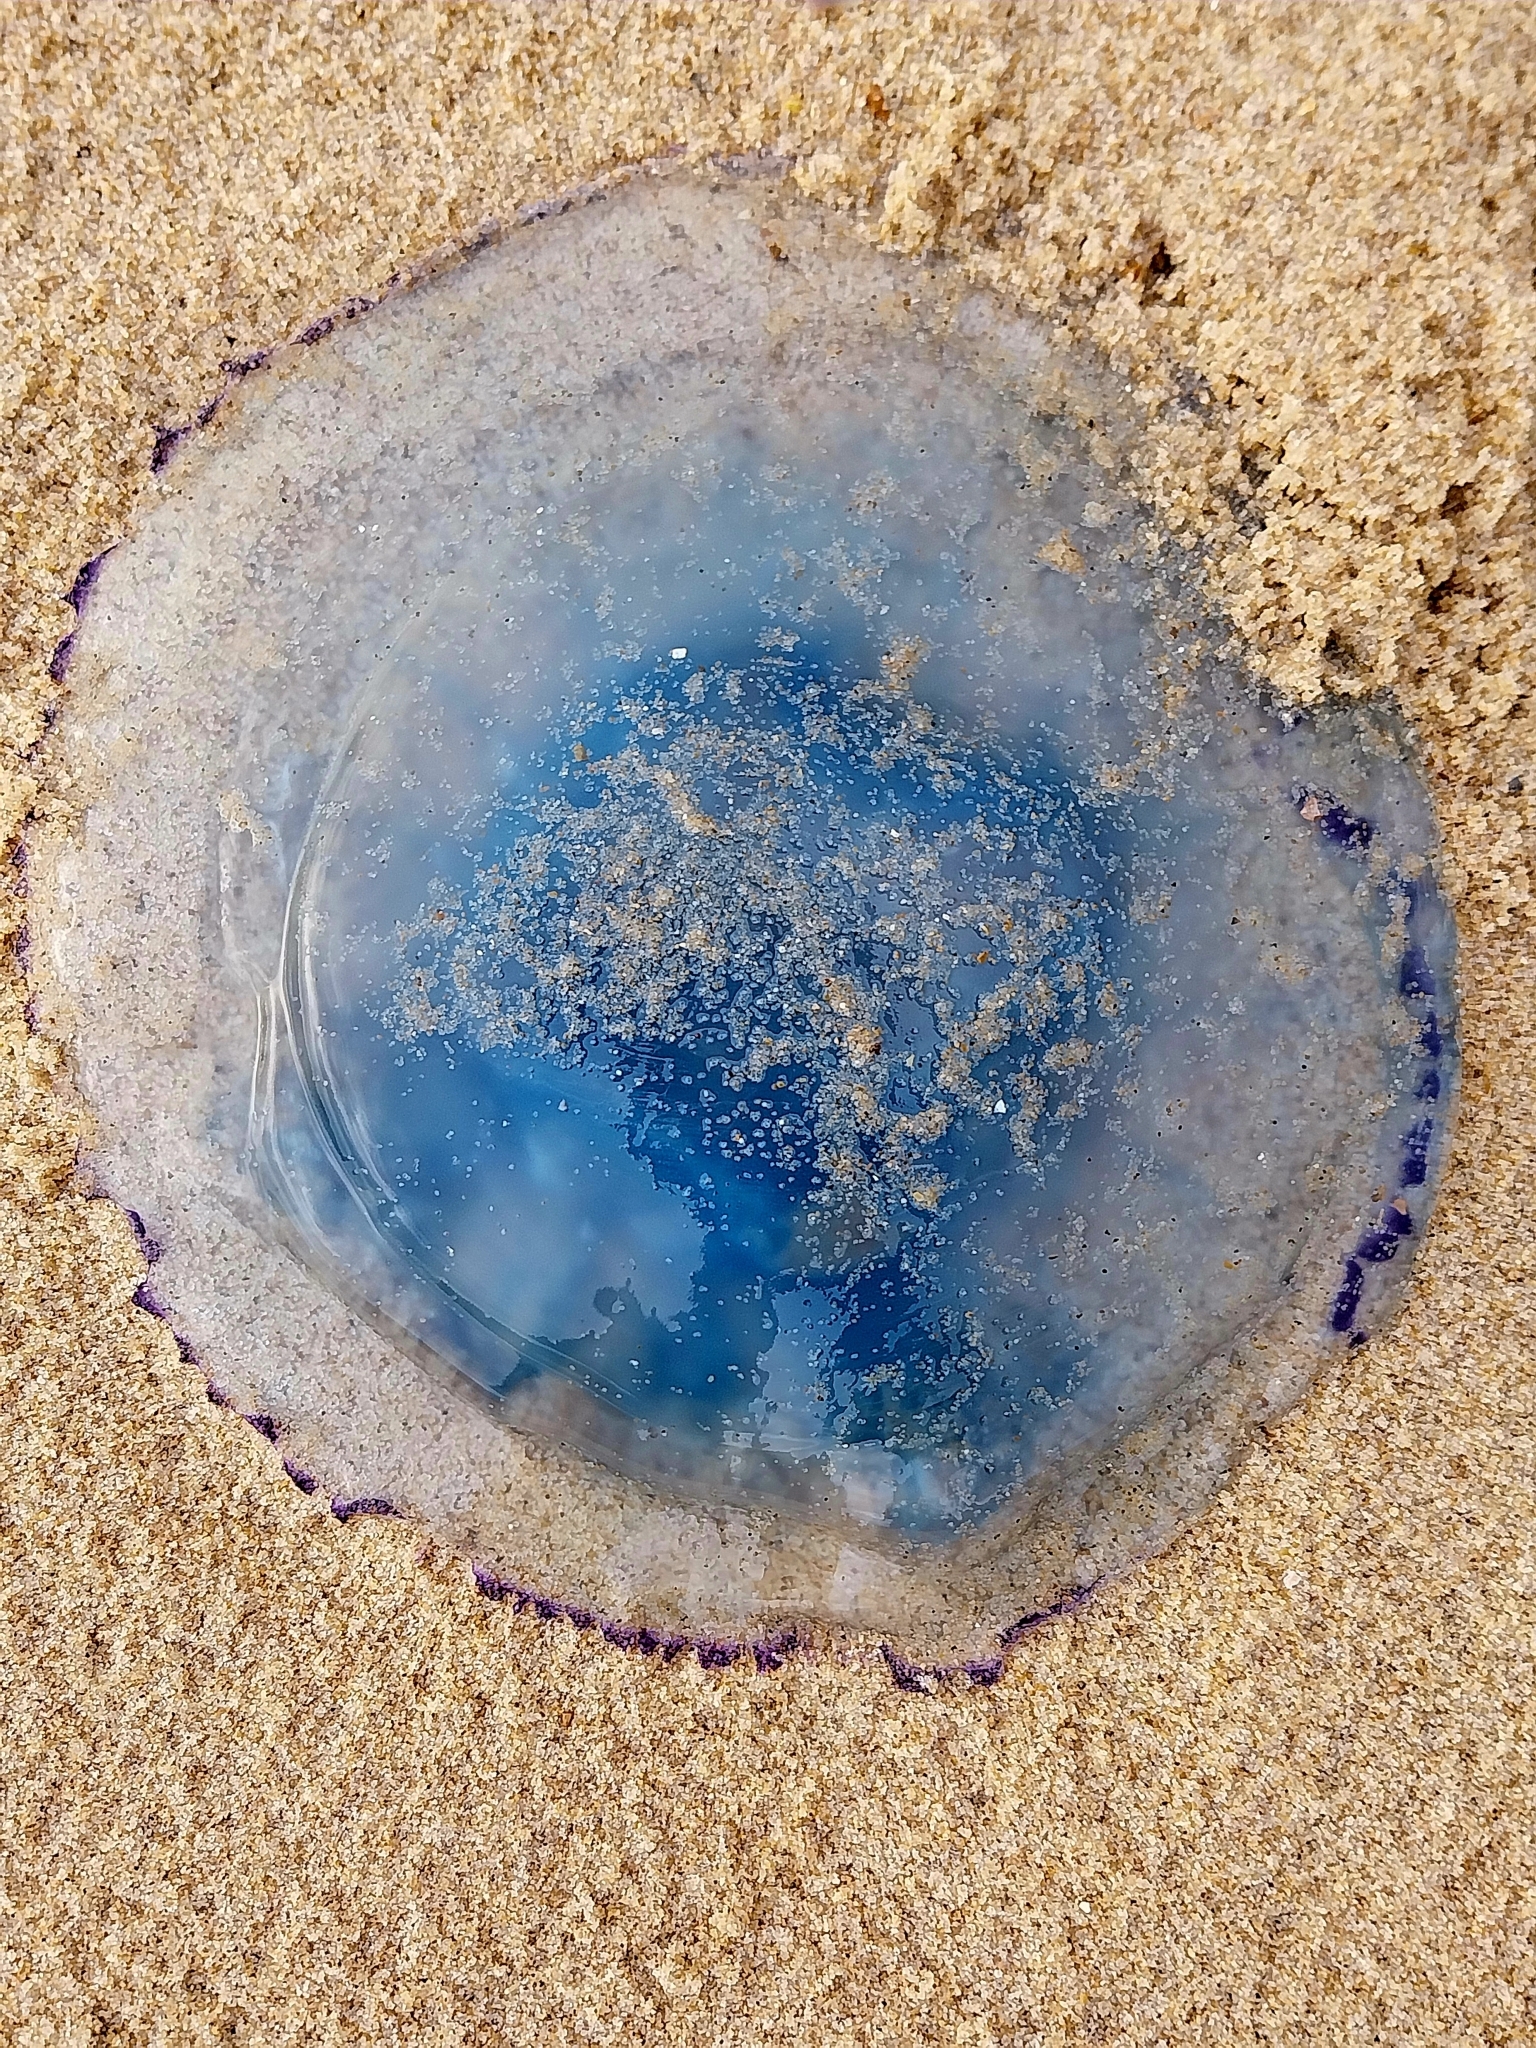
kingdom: Animalia
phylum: Cnidaria
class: Scyphozoa
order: Rhizostomeae
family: Rhizostomatidae
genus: Rhizostoma
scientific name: Rhizostoma octopus
